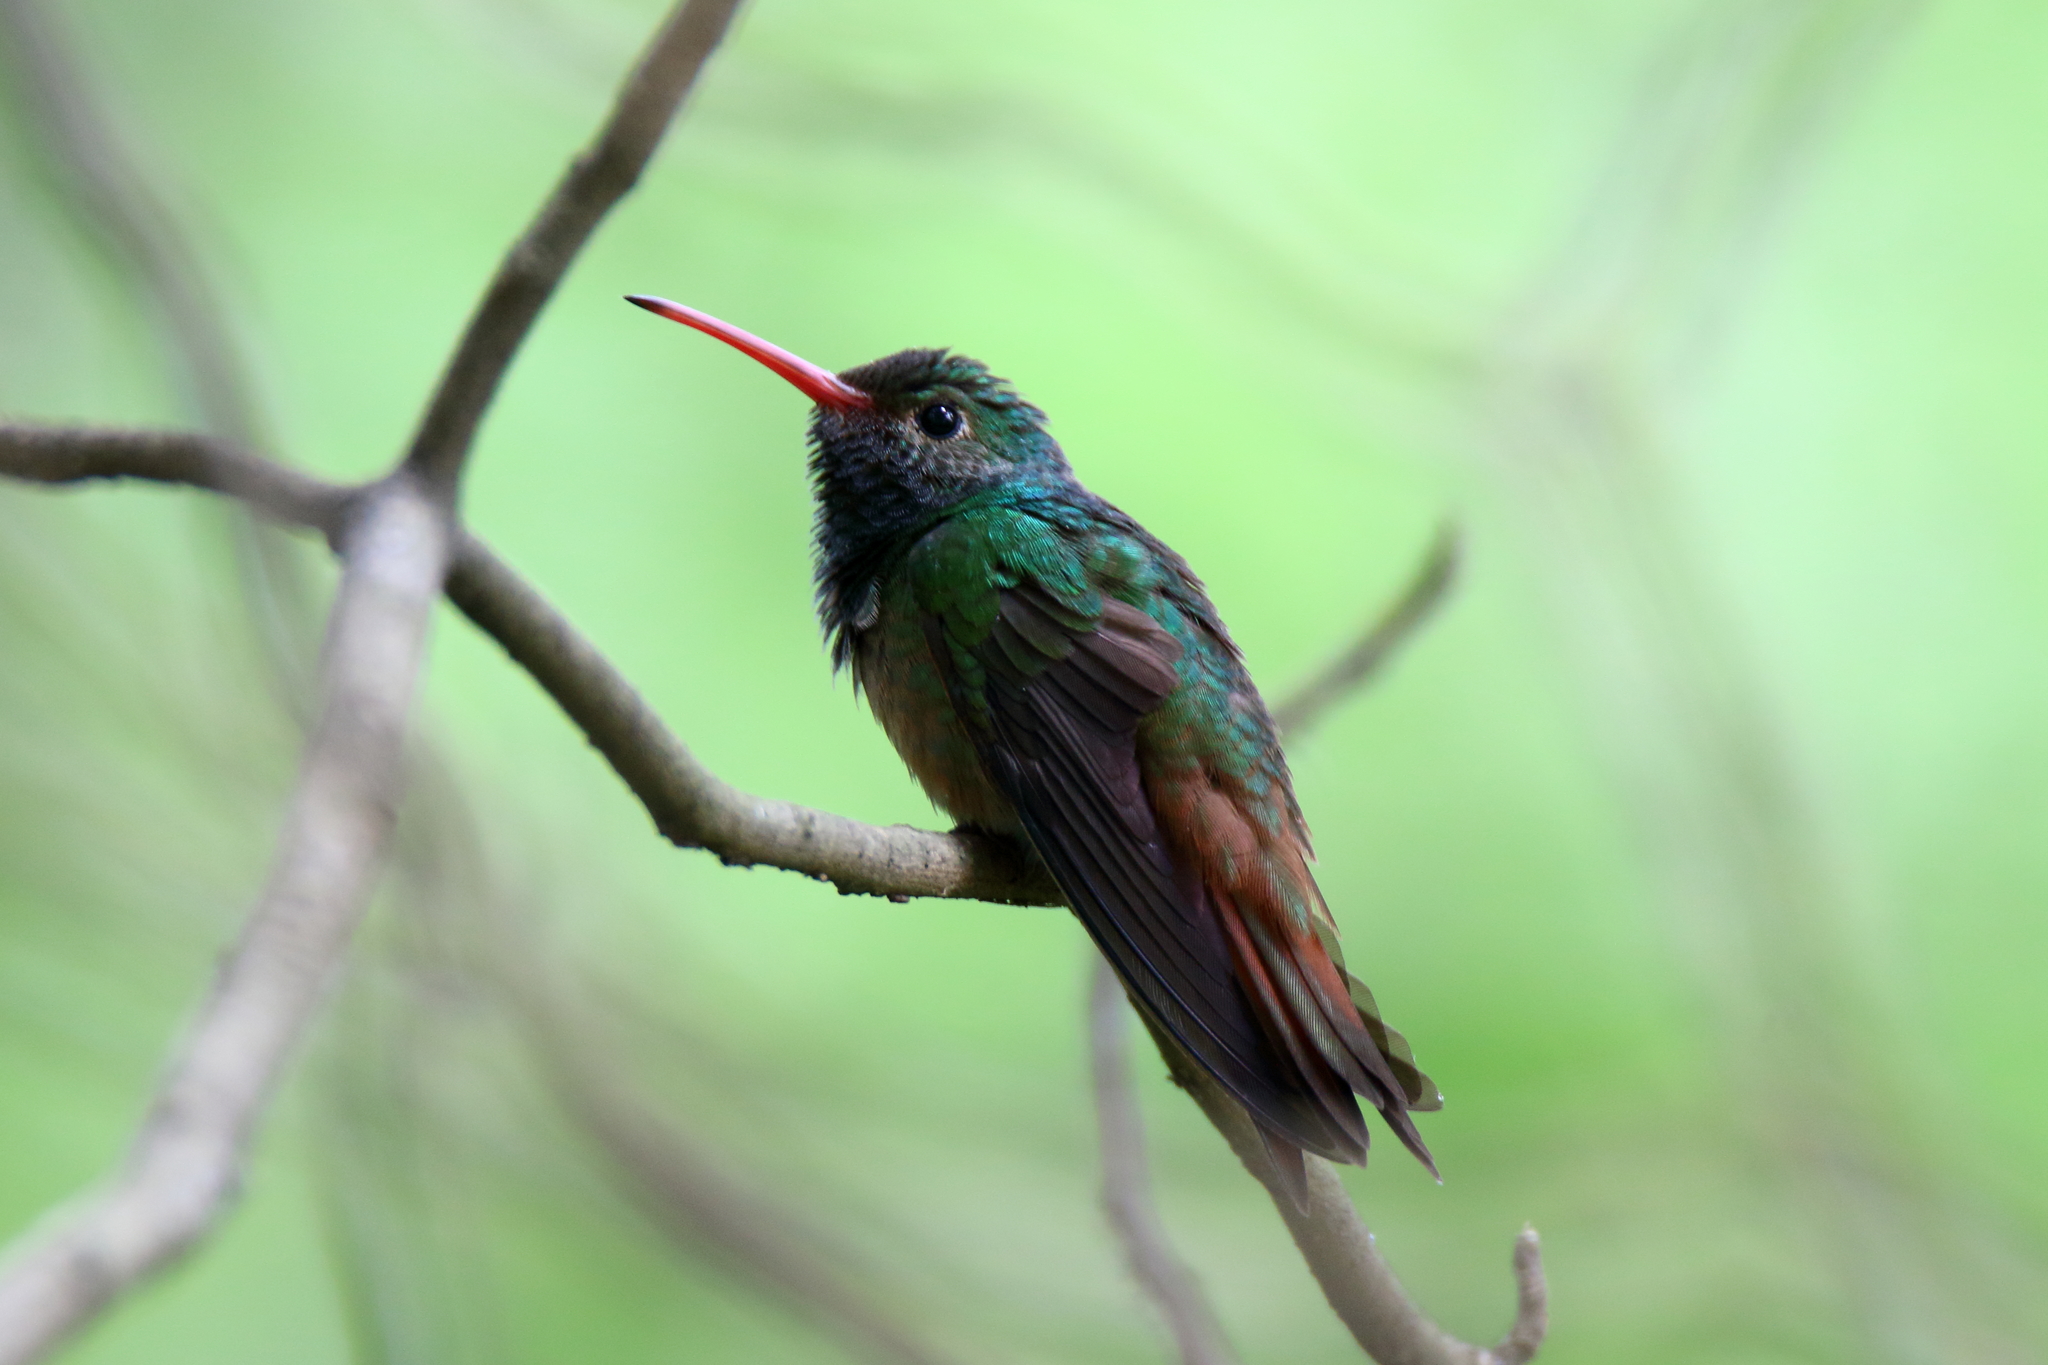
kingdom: Animalia
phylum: Chordata
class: Aves
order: Apodiformes
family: Trochilidae
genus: Amazilia
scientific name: Amazilia yucatanensis
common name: Buff-bellied hummingbird
